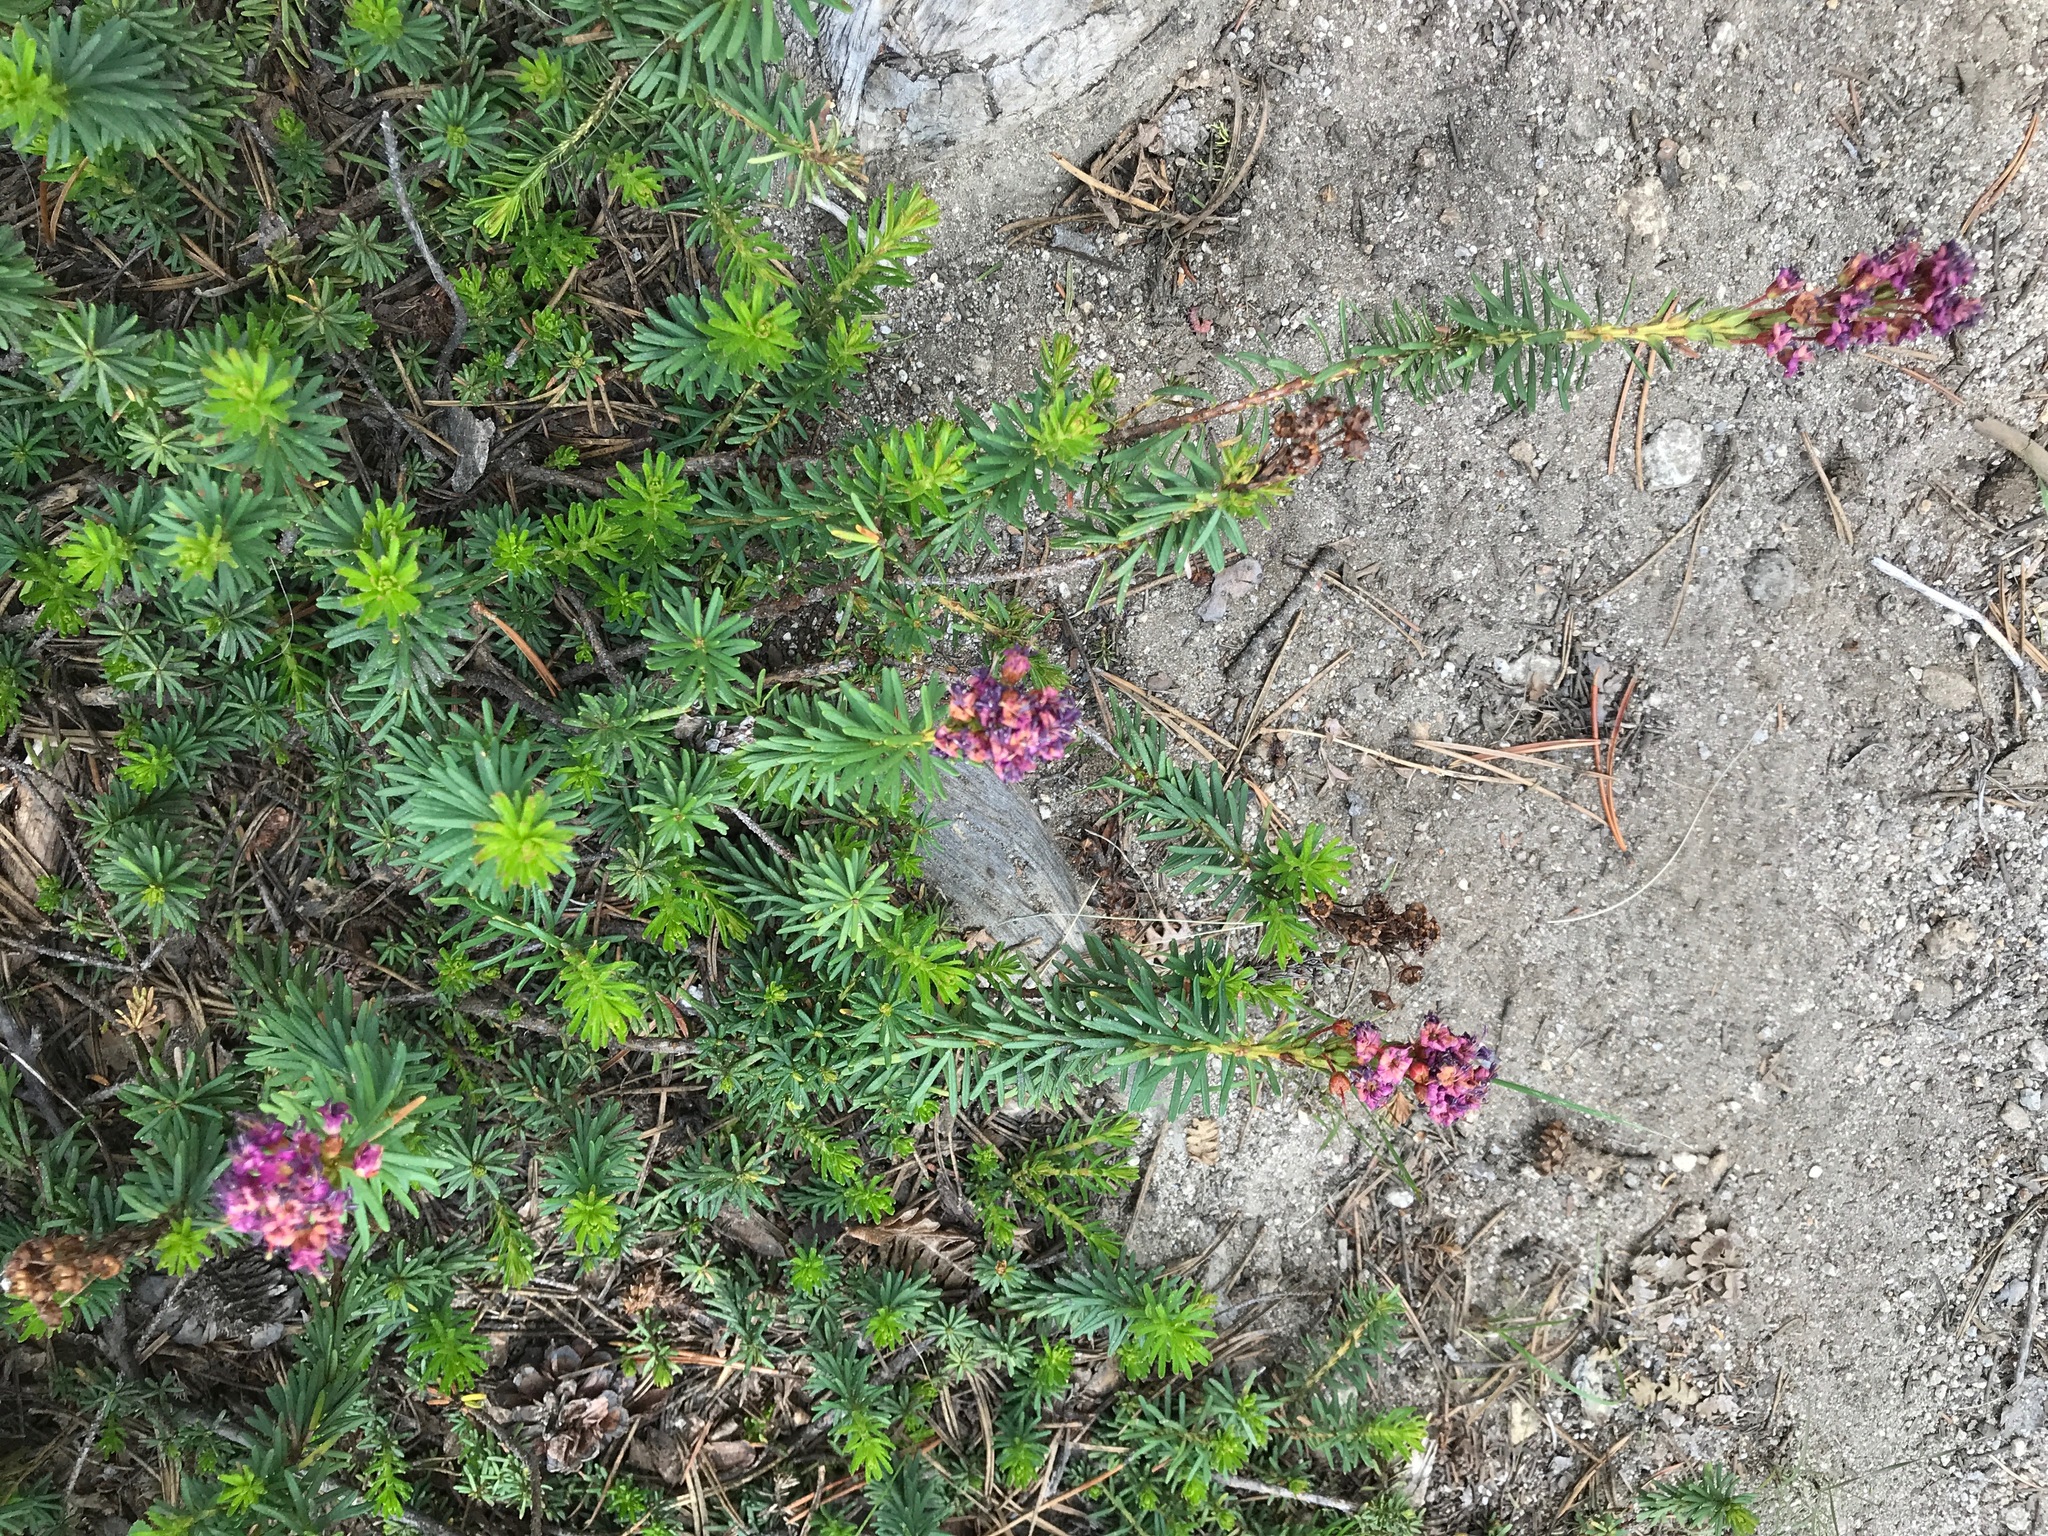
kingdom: Plantae
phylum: Tracheophyta
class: Magnoliopsida
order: Ericales
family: Ericaceae
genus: Phyllodoce
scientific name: Phyllodoce breweri
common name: Brewer's mountain-heather
